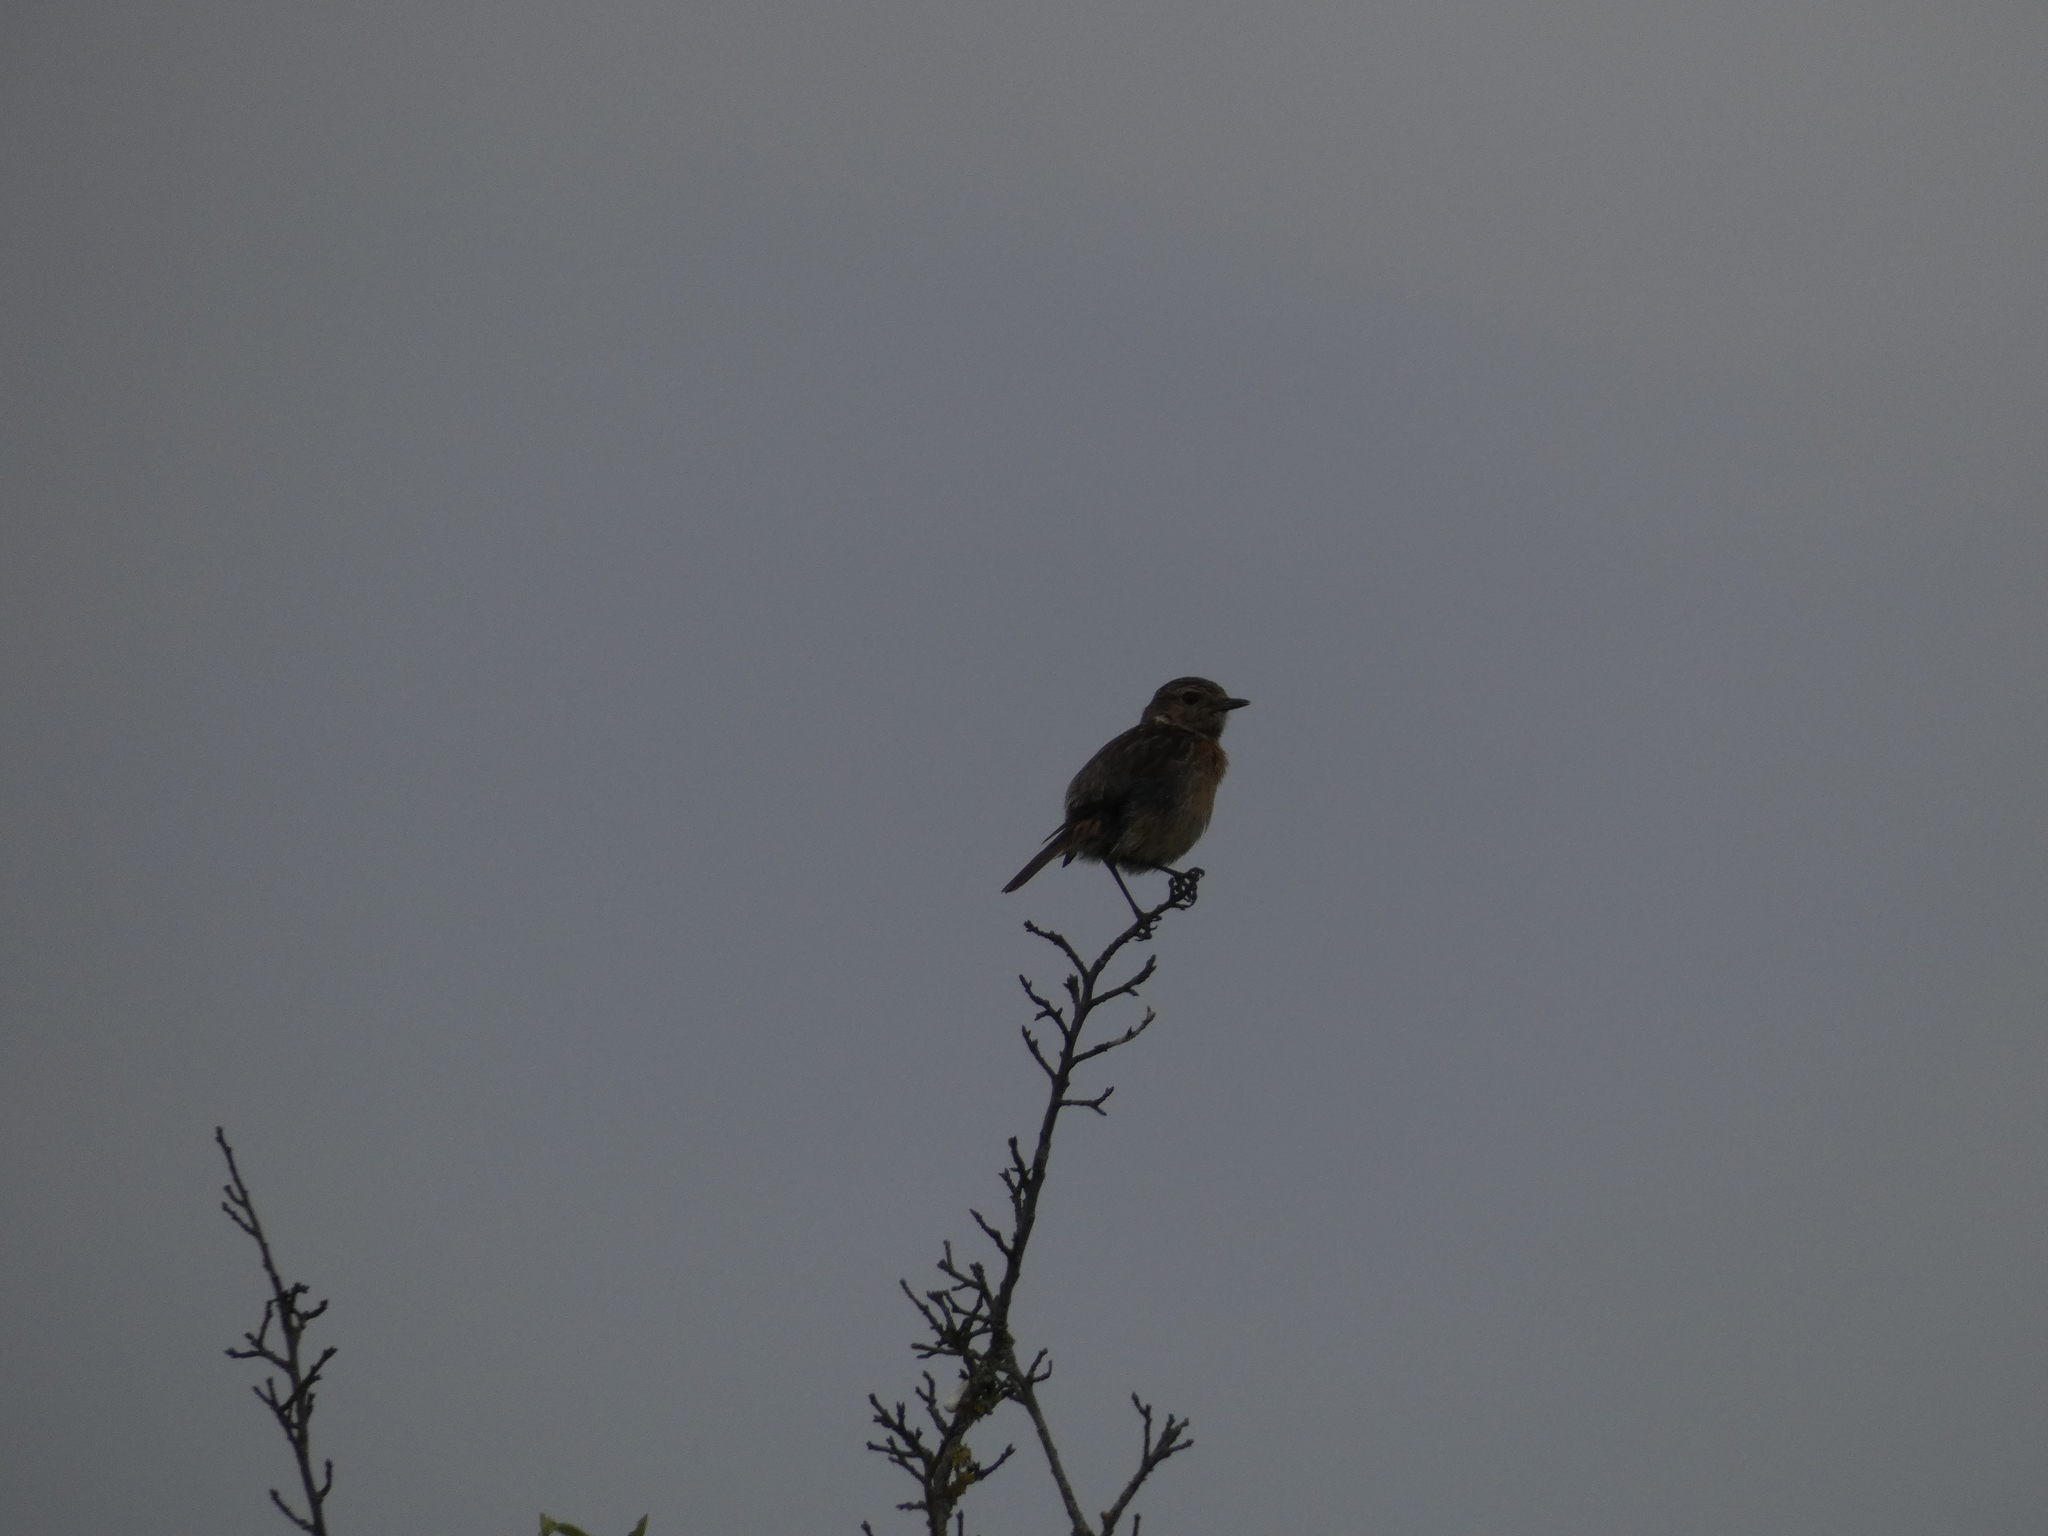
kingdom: Animalia
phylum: Chordata
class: Aves
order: Passeriformes
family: Muscicapidae
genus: Saxicola
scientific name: Saxicola rubicola
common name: European stonechat
